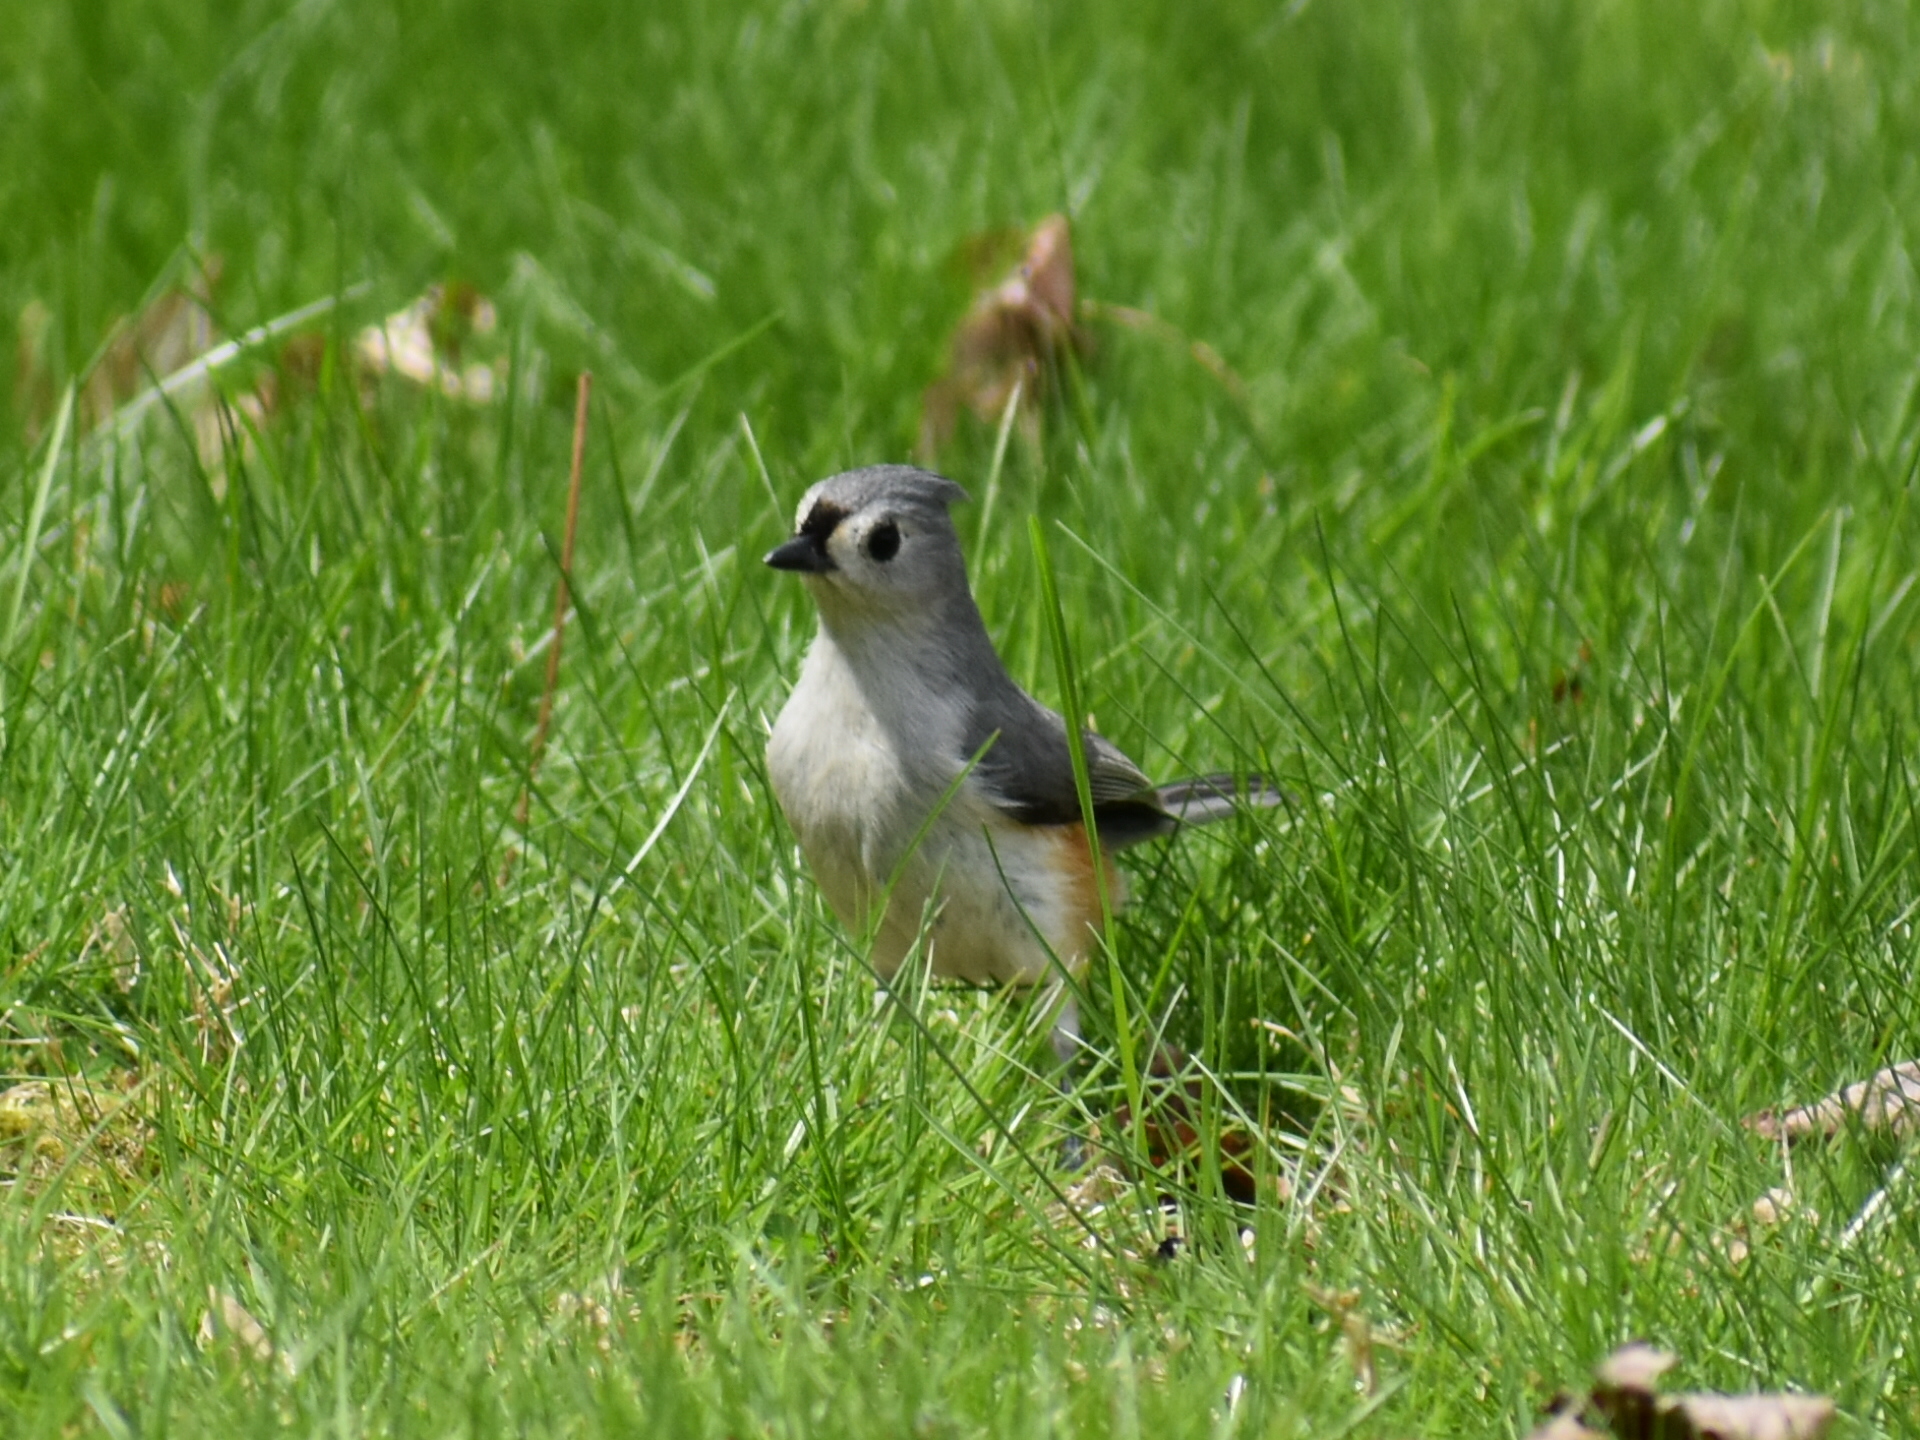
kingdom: Animalia
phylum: Chordata
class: Aves
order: Passeriformes
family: Paridae
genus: Baeolophus
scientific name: Baeolophus bicolor
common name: Tufted titmouse
